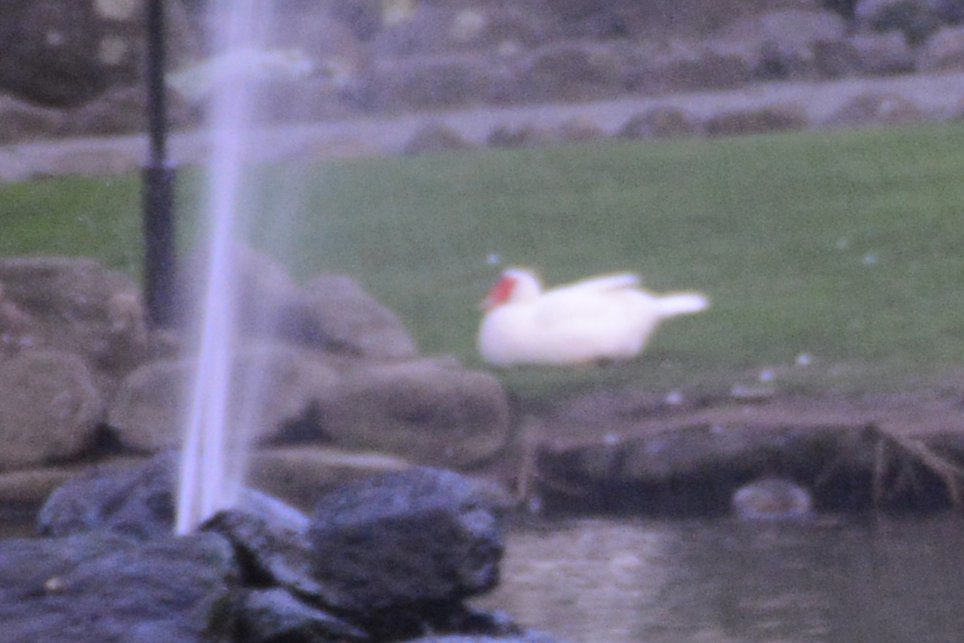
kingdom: Animalia
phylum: Chordata
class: Aves
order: Anseriformes
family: Anatidae
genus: Cairina
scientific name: Cairina moschata
